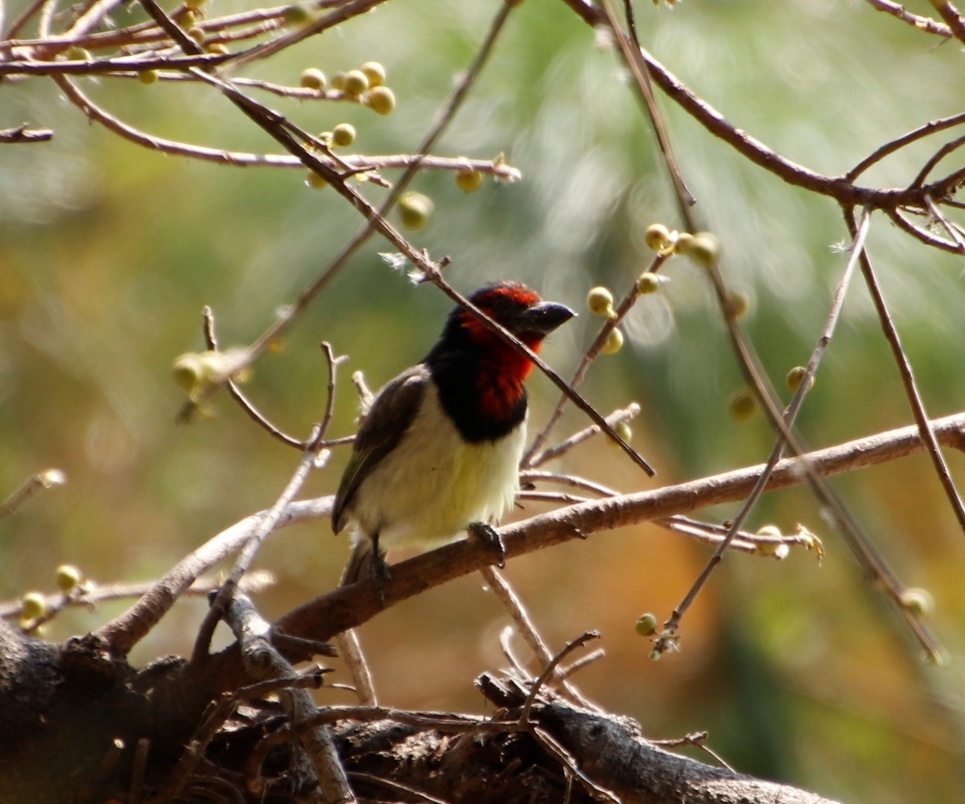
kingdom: Animalia
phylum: Chordata
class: Aves
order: Piciformes
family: Lybiidae
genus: Lybius
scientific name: Lybius torquatus
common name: Black-collared barbet
